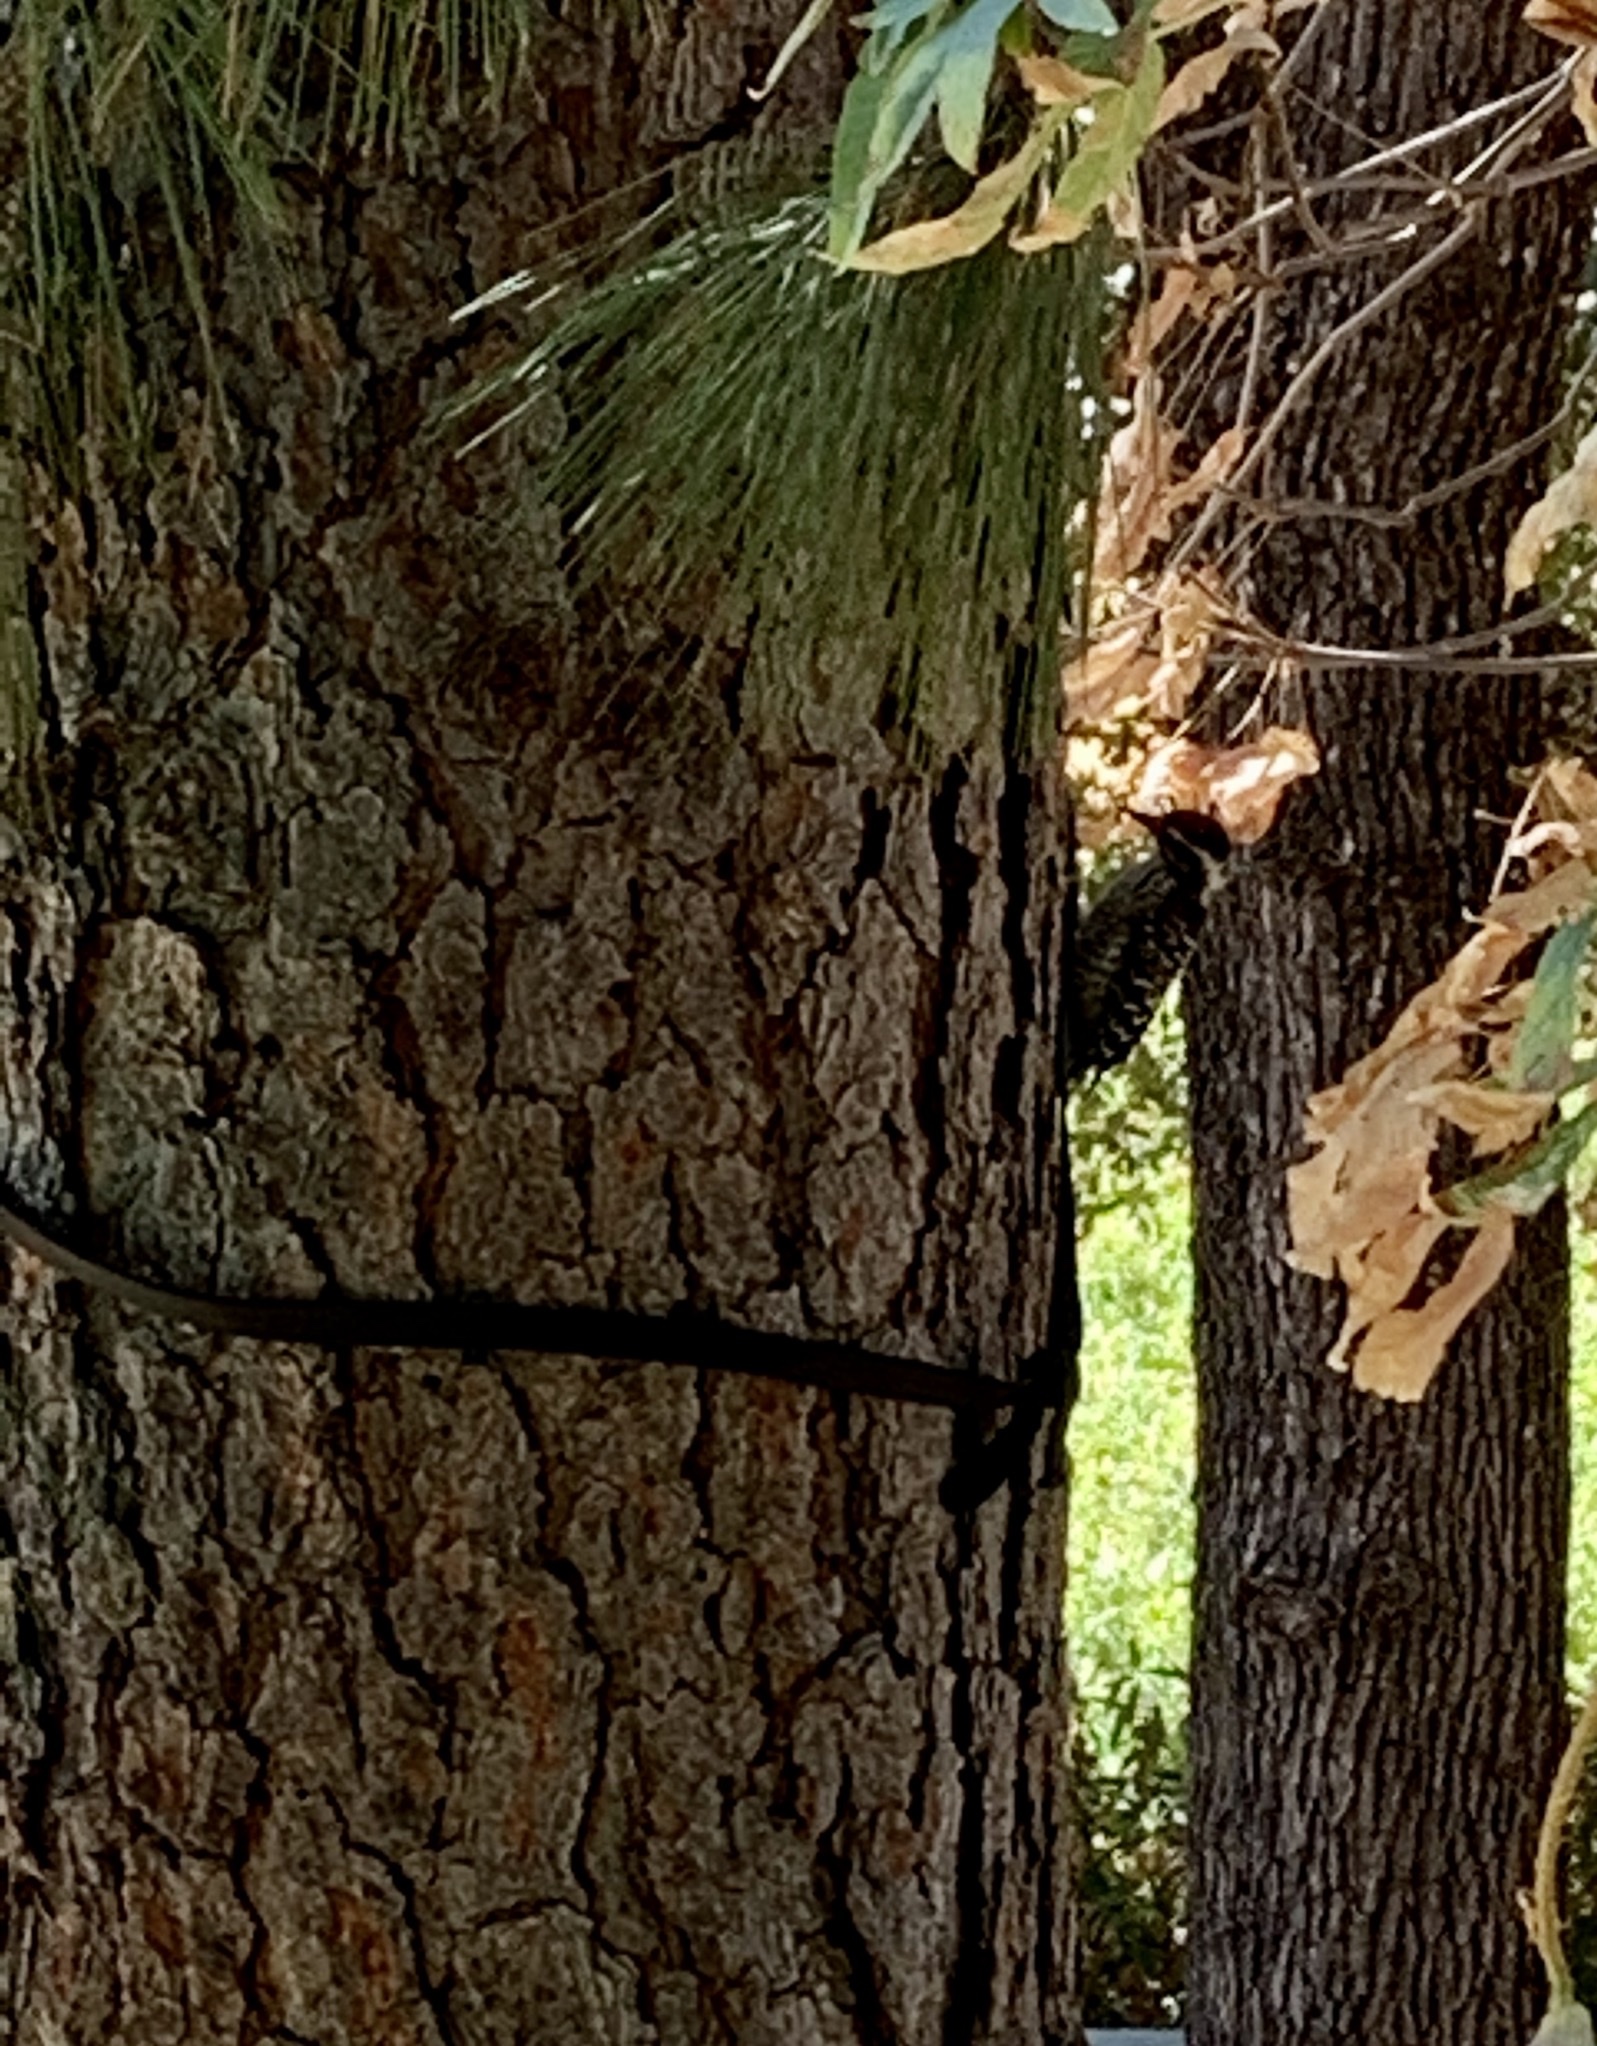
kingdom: Animalia
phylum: Chordata
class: Aves
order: Piciformes
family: Picidae
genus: Dryobates
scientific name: Dryobates nuttallii
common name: Nuttall's woodpecker
